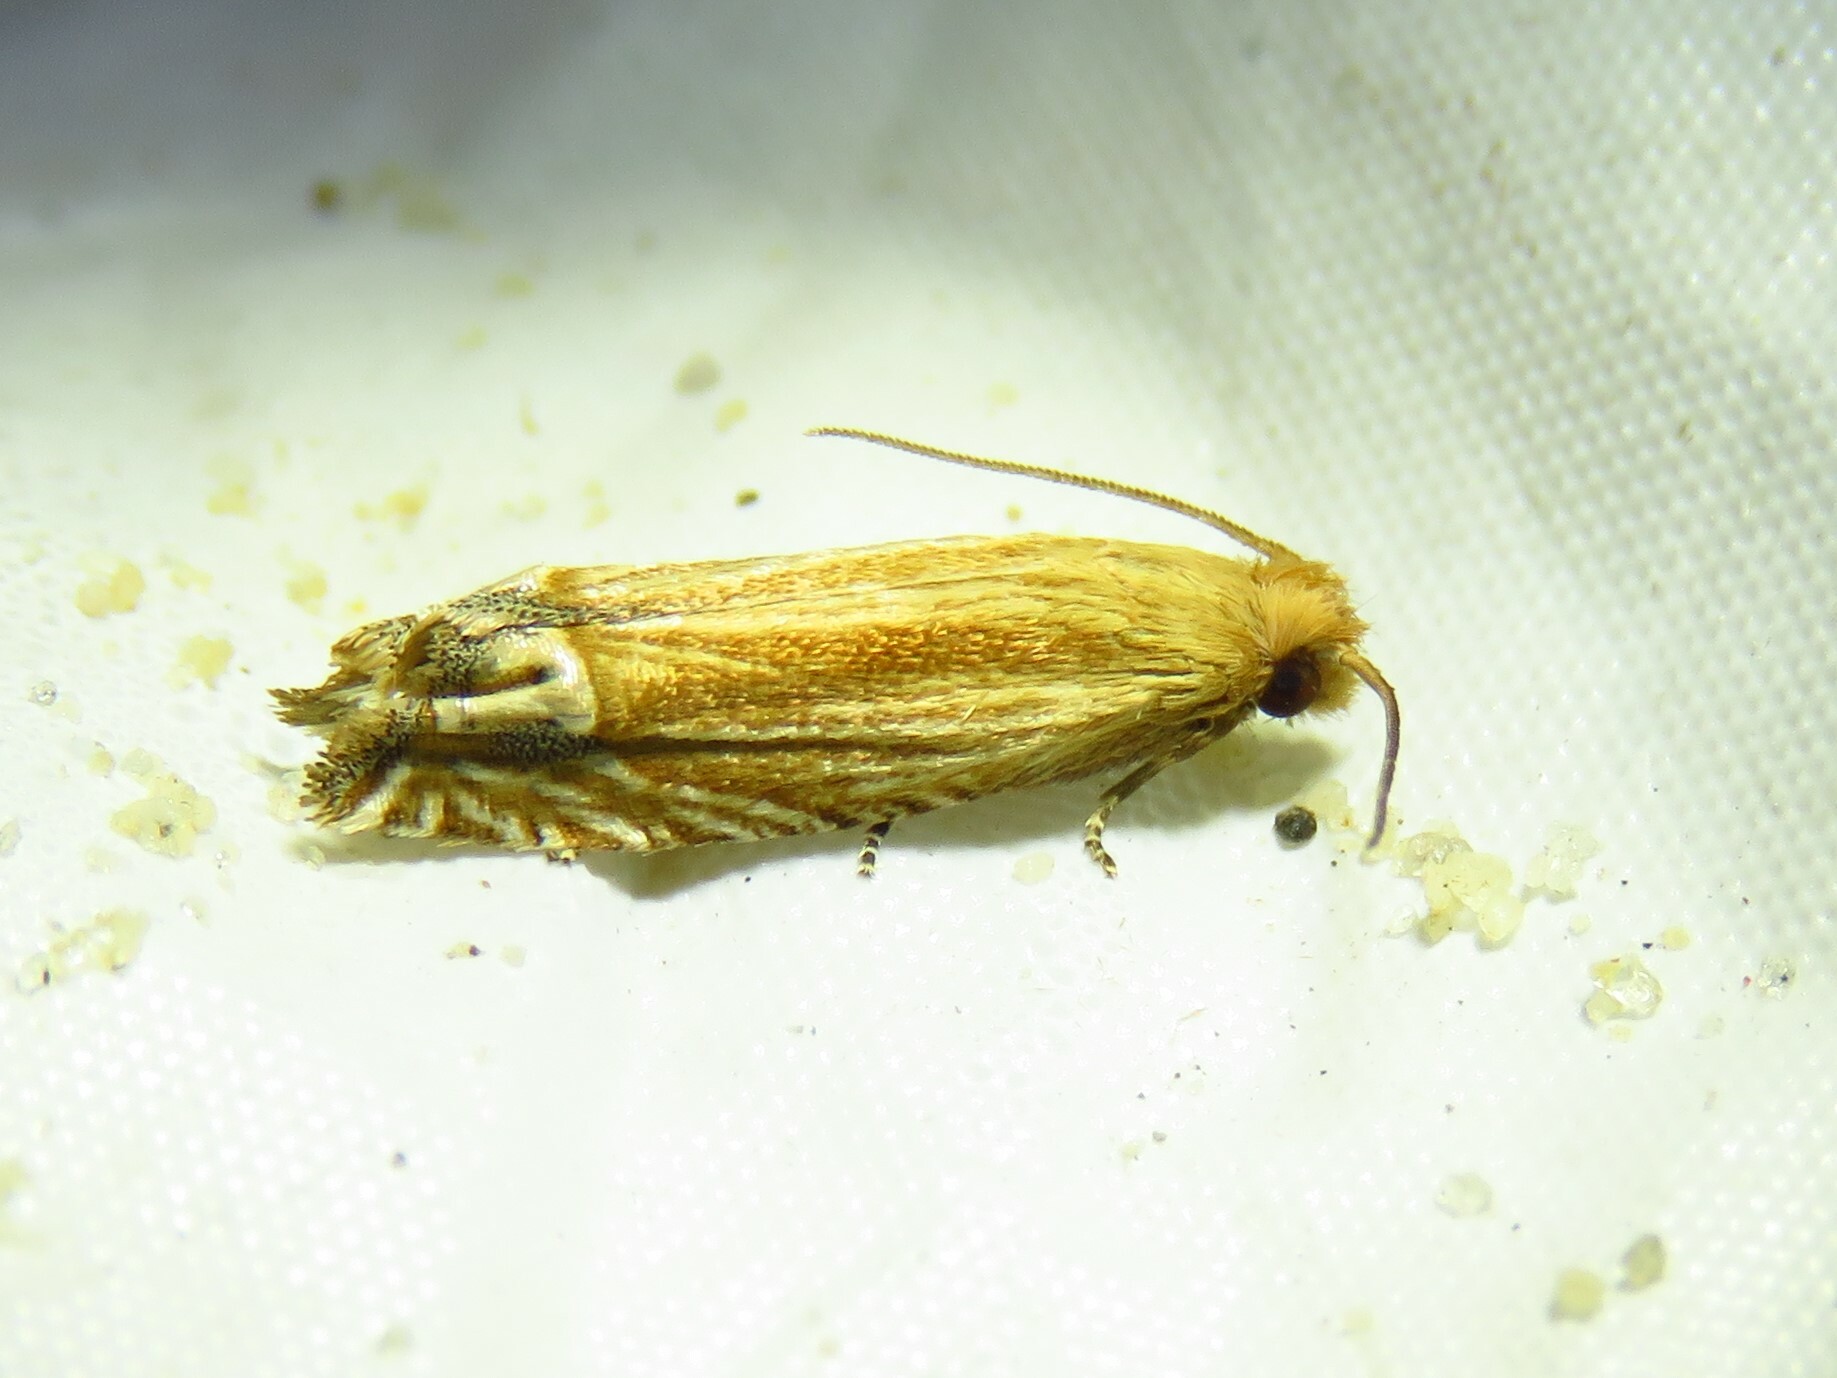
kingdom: Animalia
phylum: Arthropoda
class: Insecta
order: Lepidoptera
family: Tortricidae
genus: Pelochrista
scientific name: Pelochrista cataclystiana
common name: Goldenrod pelochrista moth
